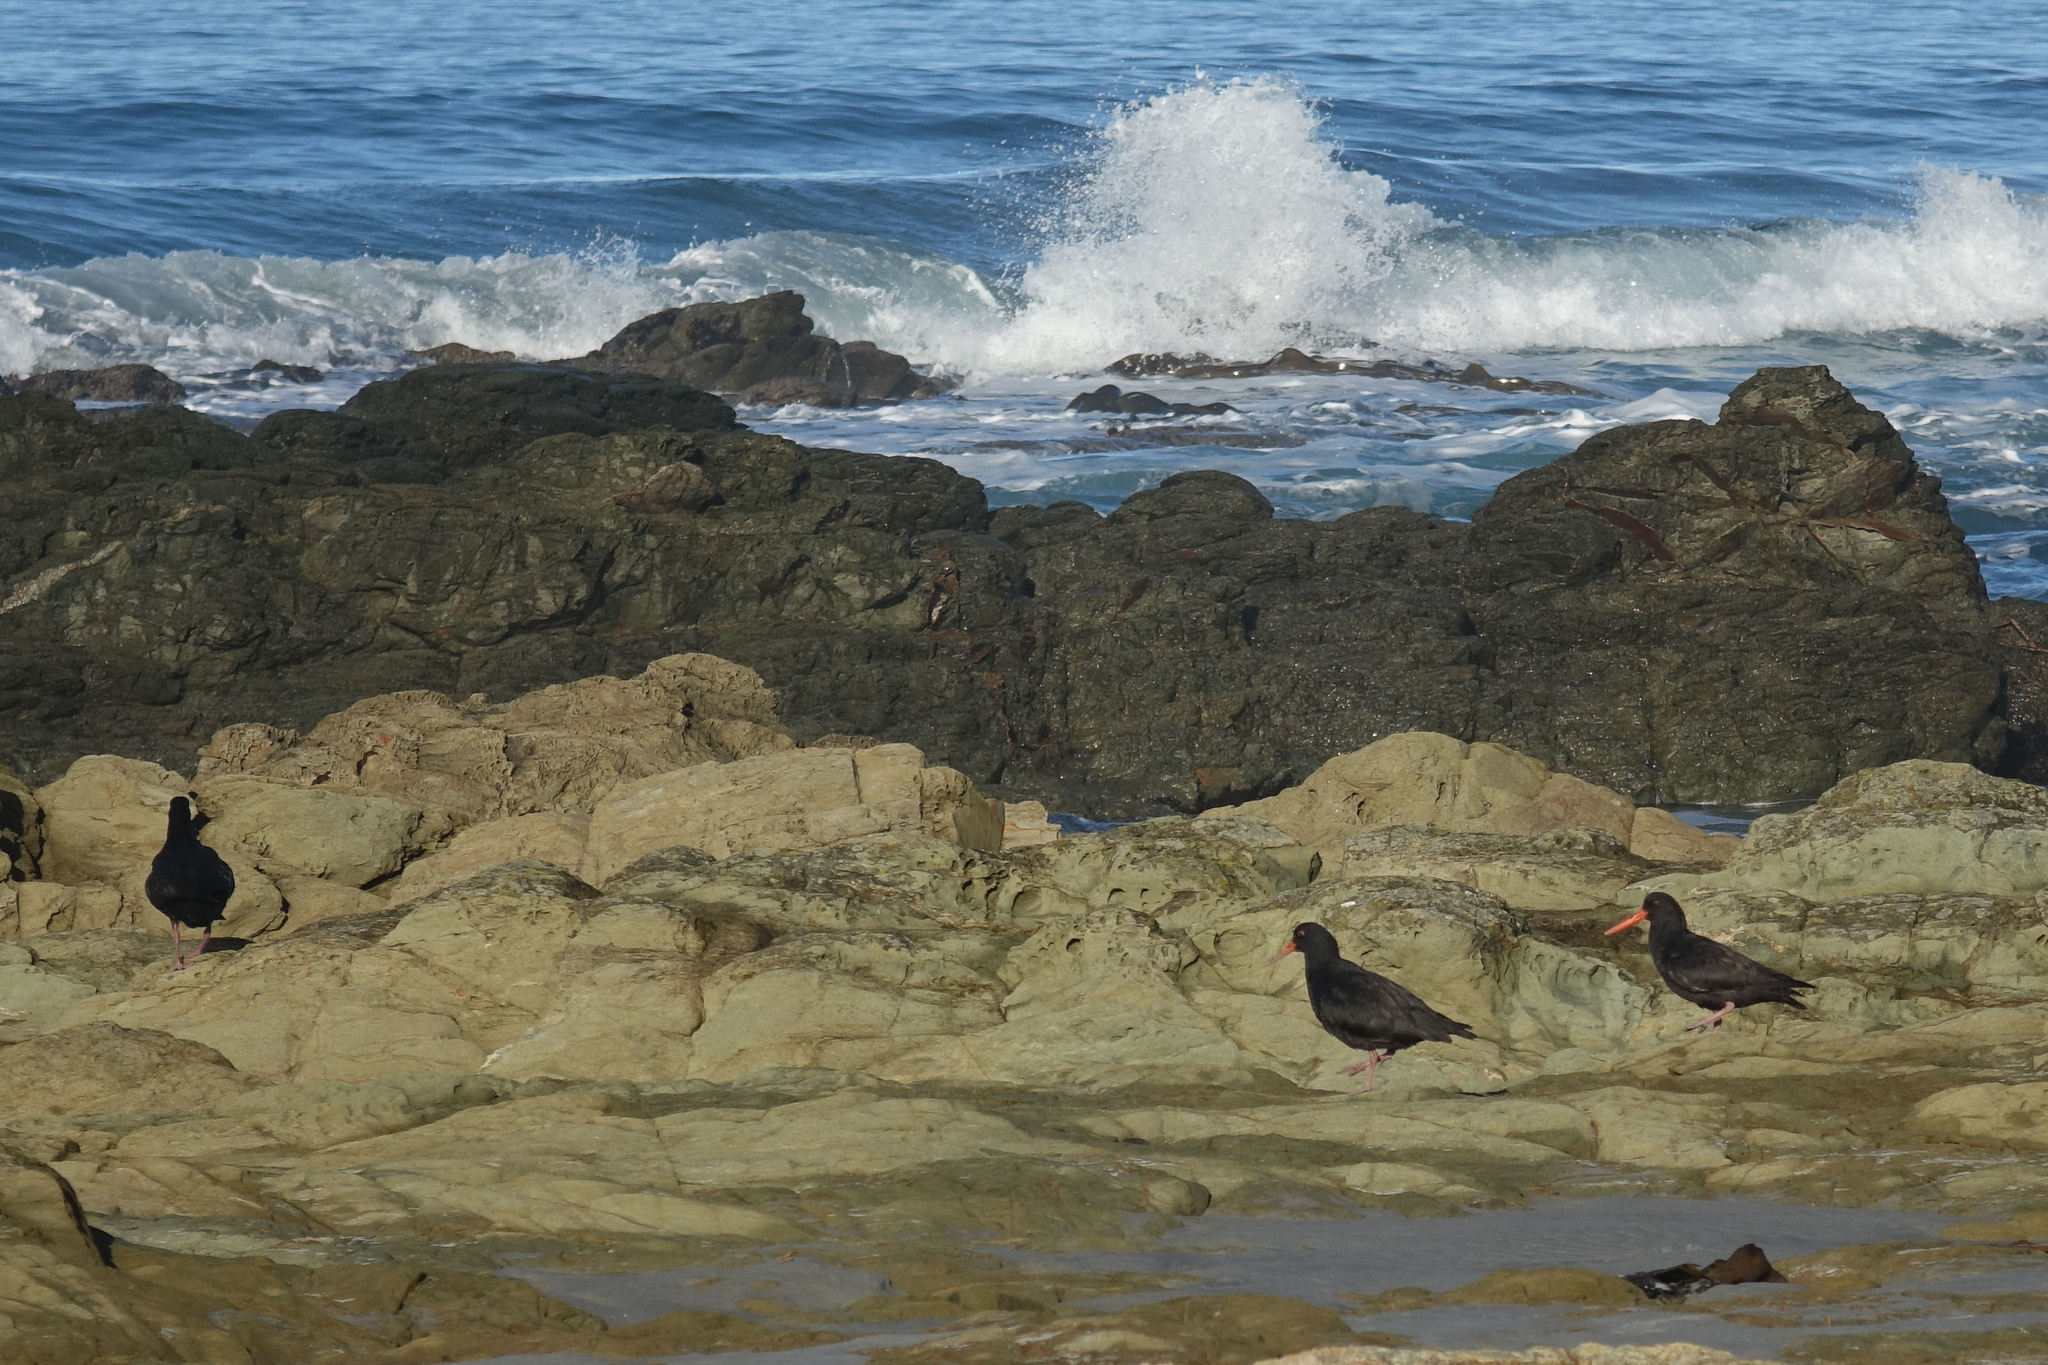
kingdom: Animalia
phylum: Chordata
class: Aves
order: Charadriiformes
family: Haematopodidae
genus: Haematopus
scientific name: Haematopus unicolor
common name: Variable oystercatcher
